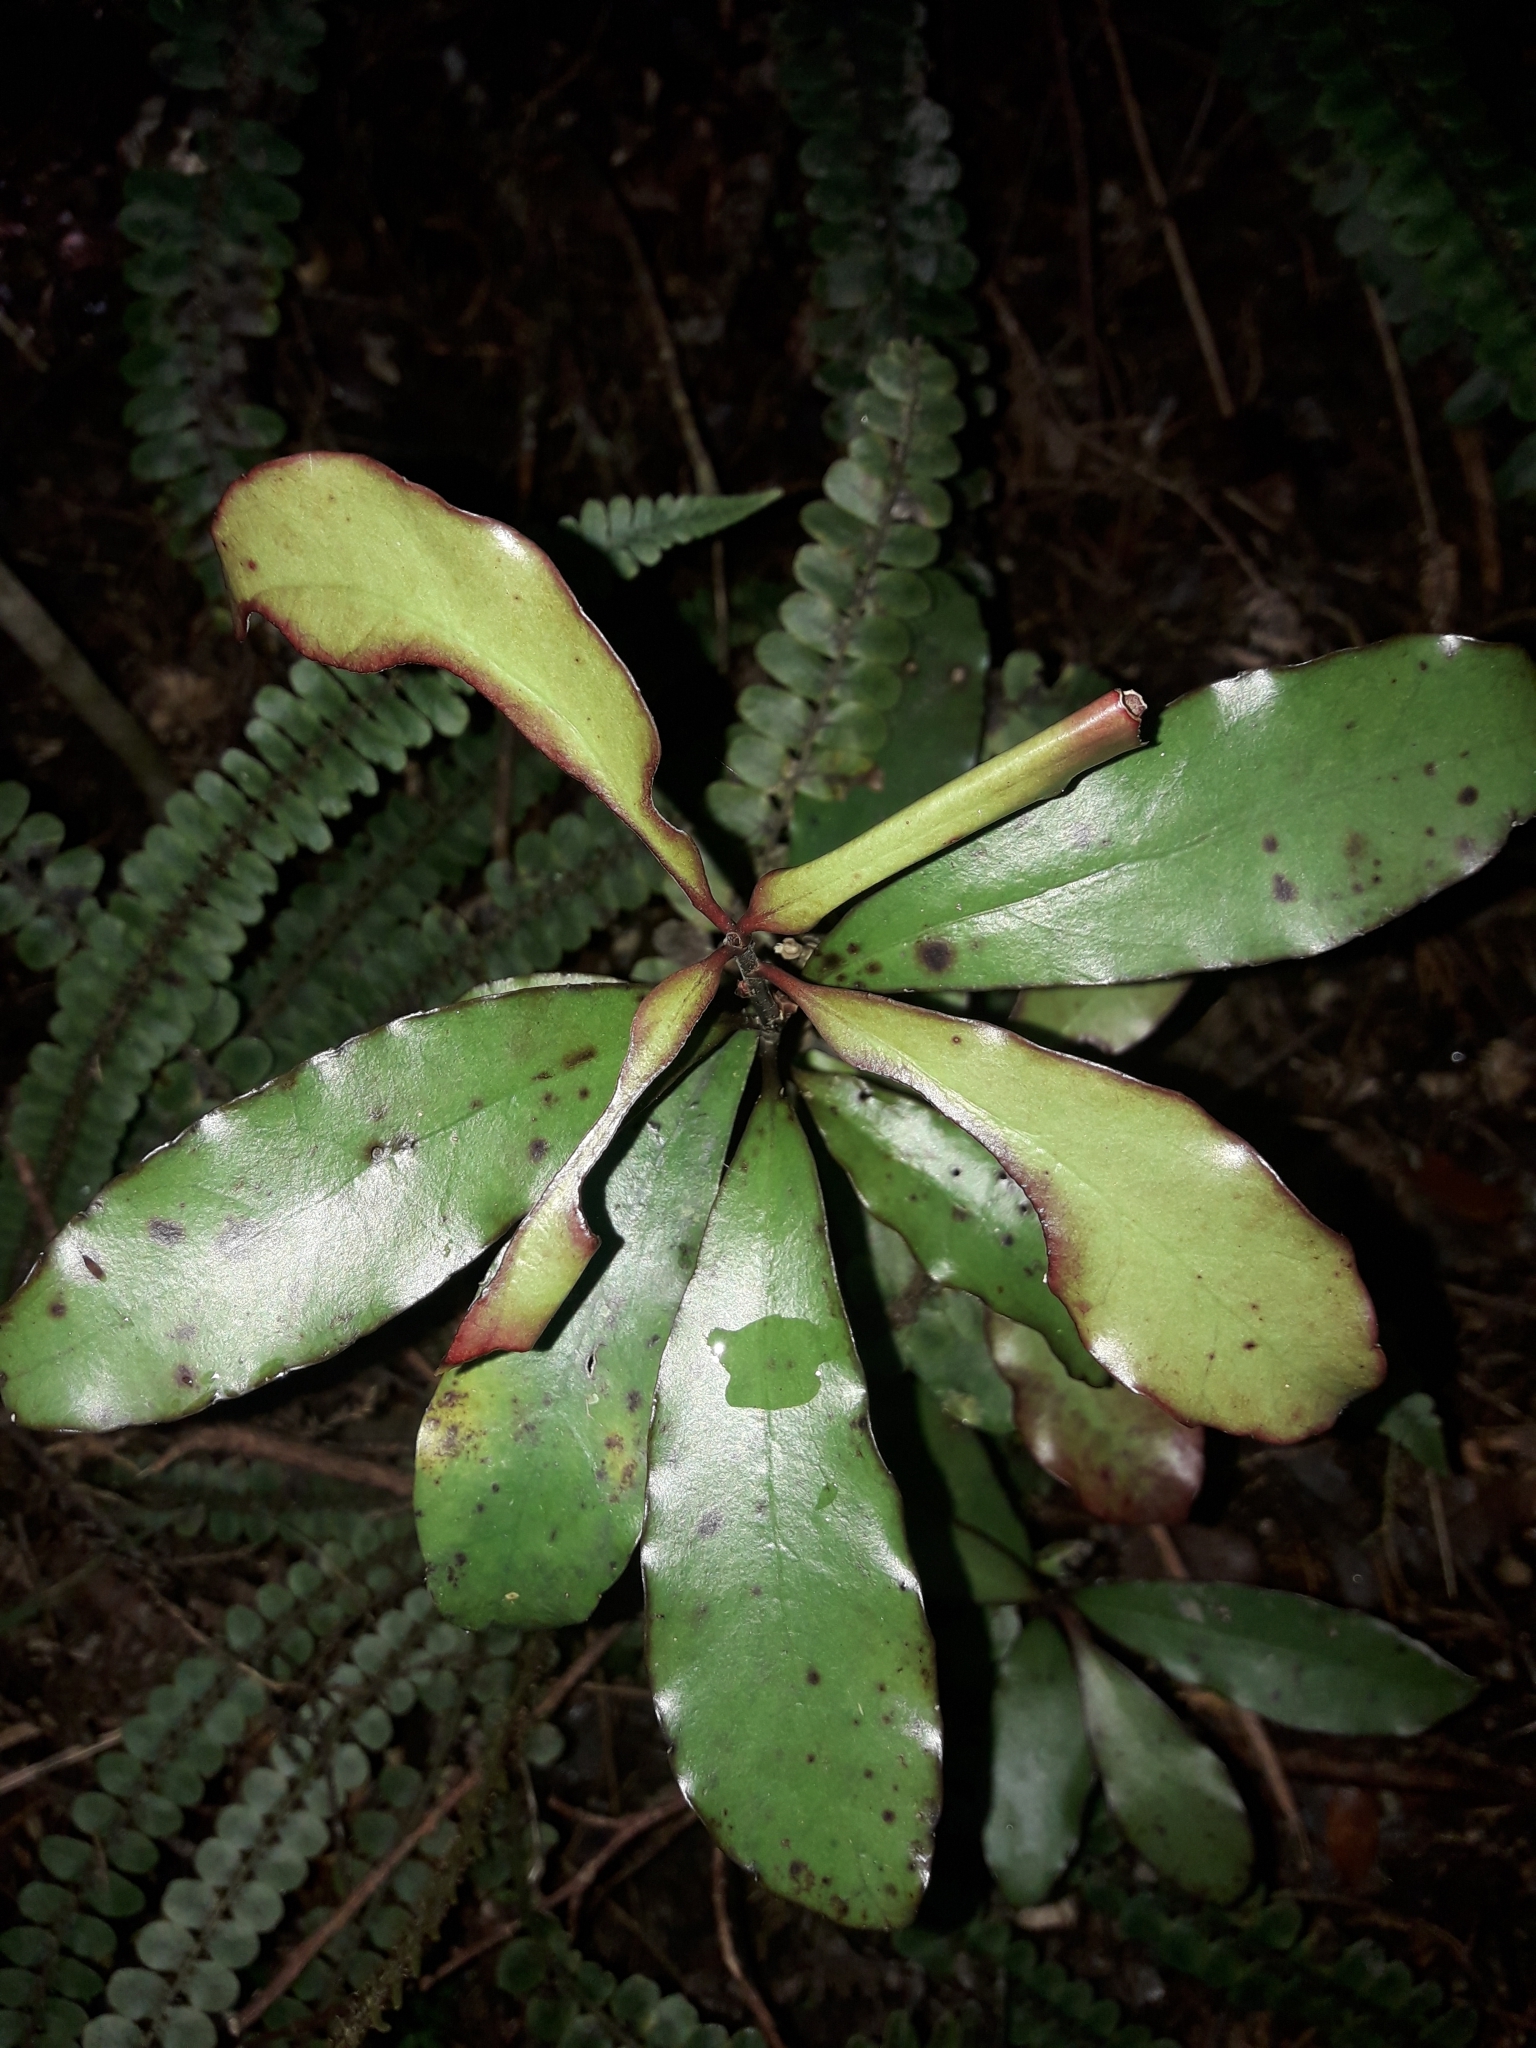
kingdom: Plantae
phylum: Tracheophyta
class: Magnoliopsida
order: Asterales
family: Alseuosmiaceae
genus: Alseuosmia
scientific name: Alseuosmia pusilla
